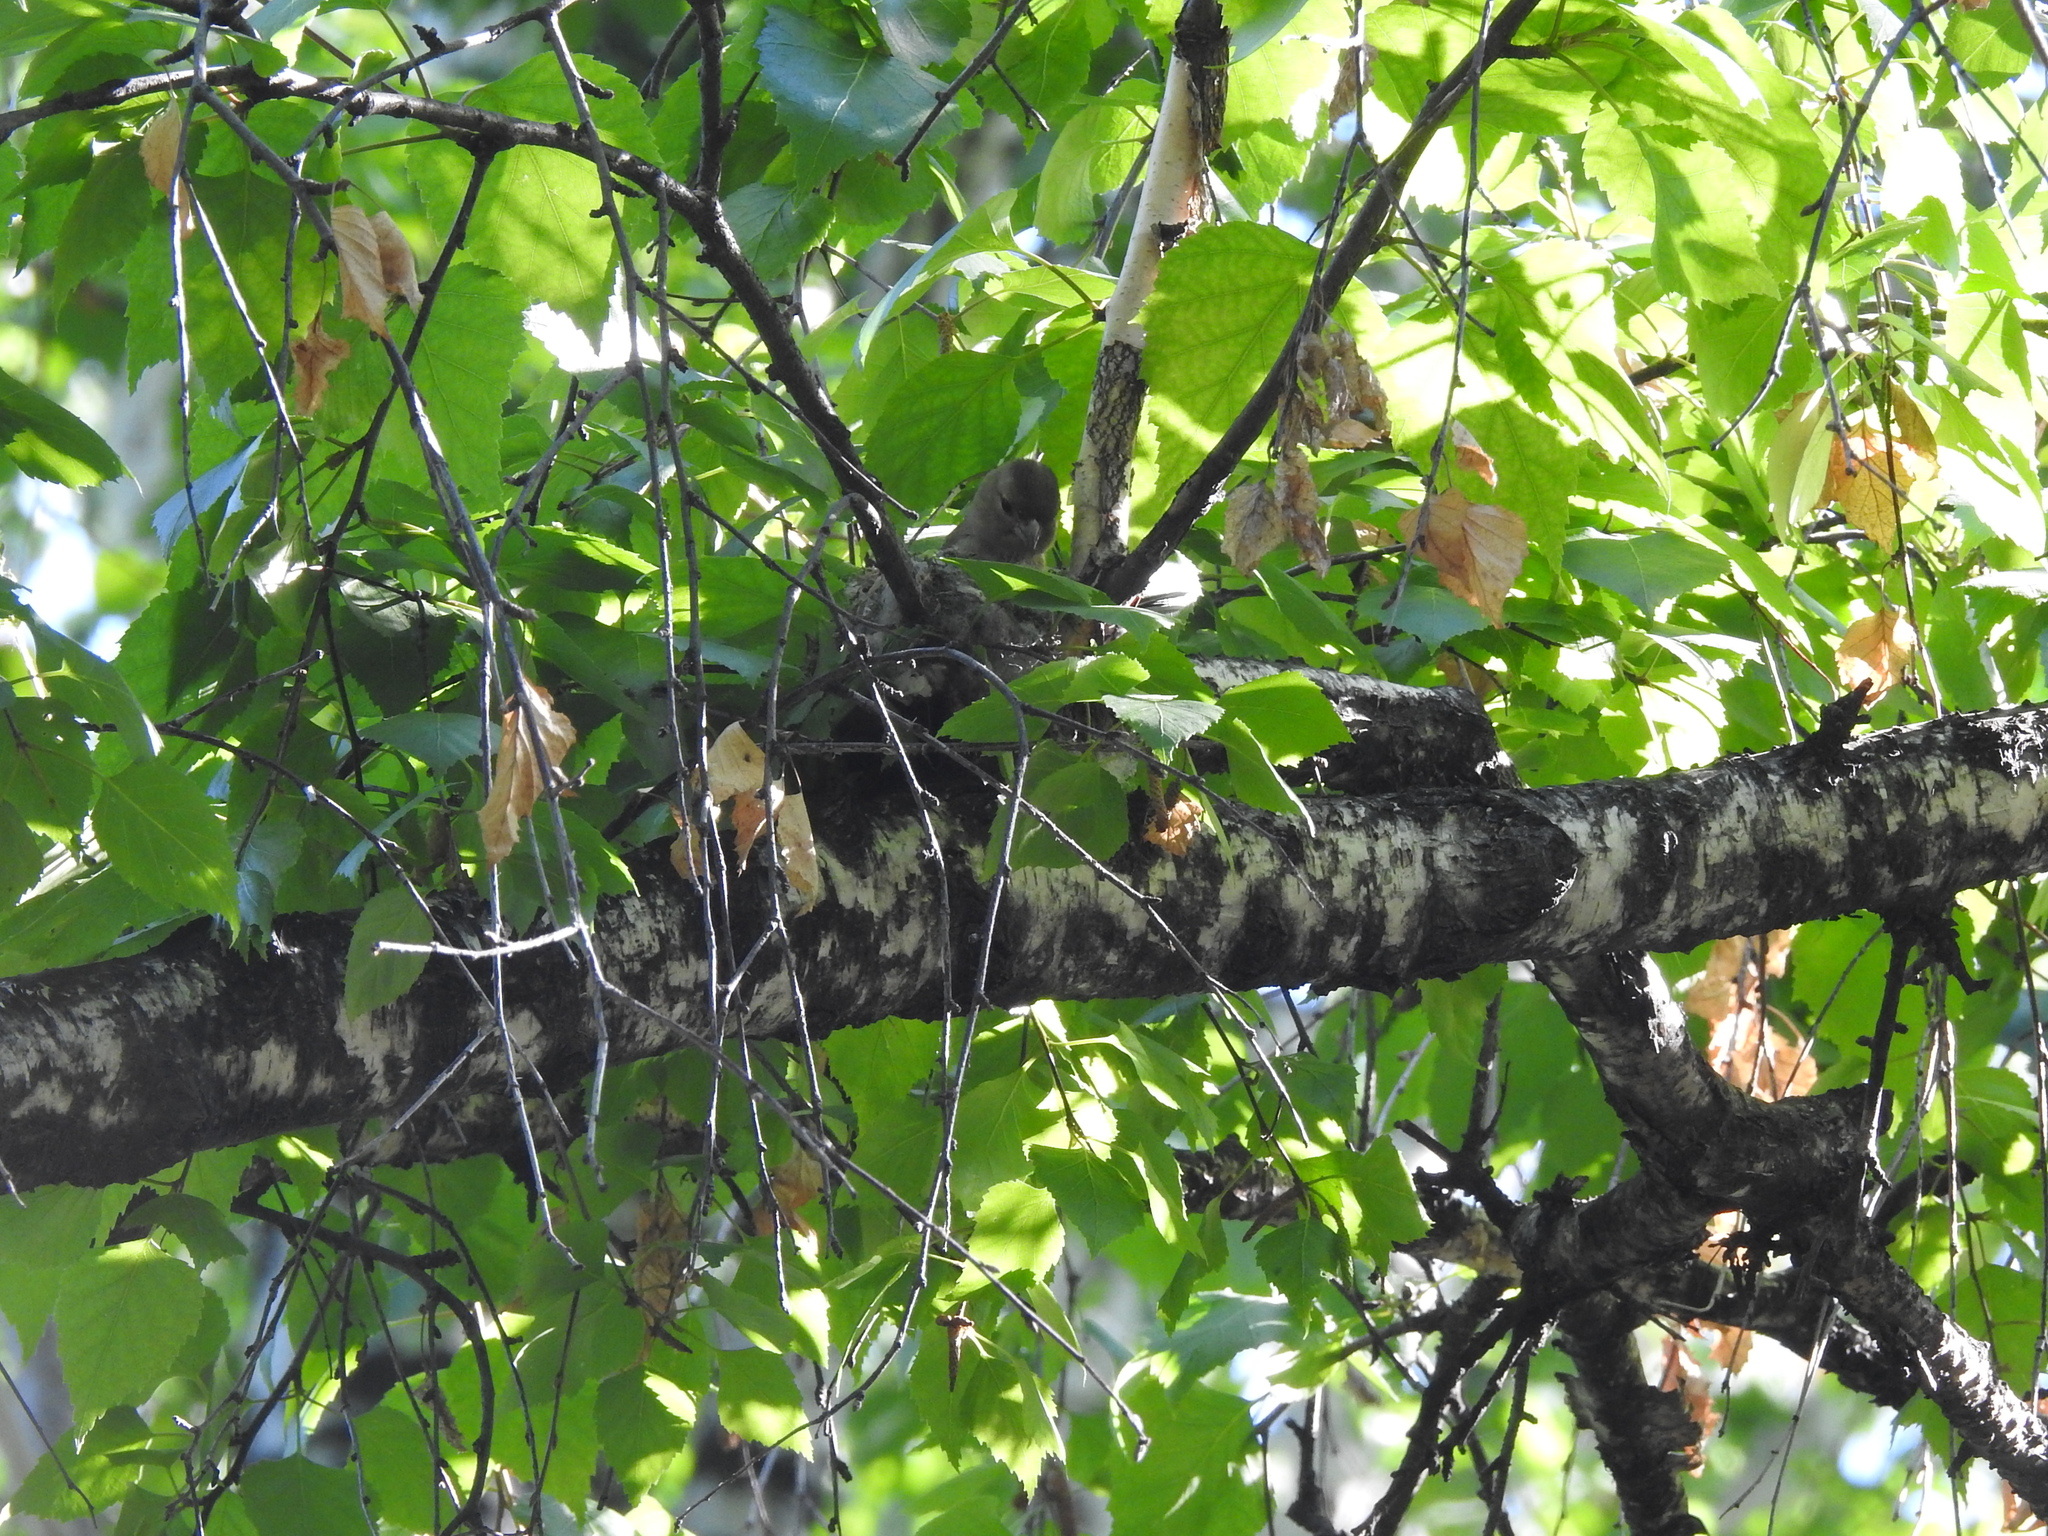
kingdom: Animalia
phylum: Chordata
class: Aves
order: Passeriformes
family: Fringillidae
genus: Fringilla
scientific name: Fringilla coelebs
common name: Common chaffinch
